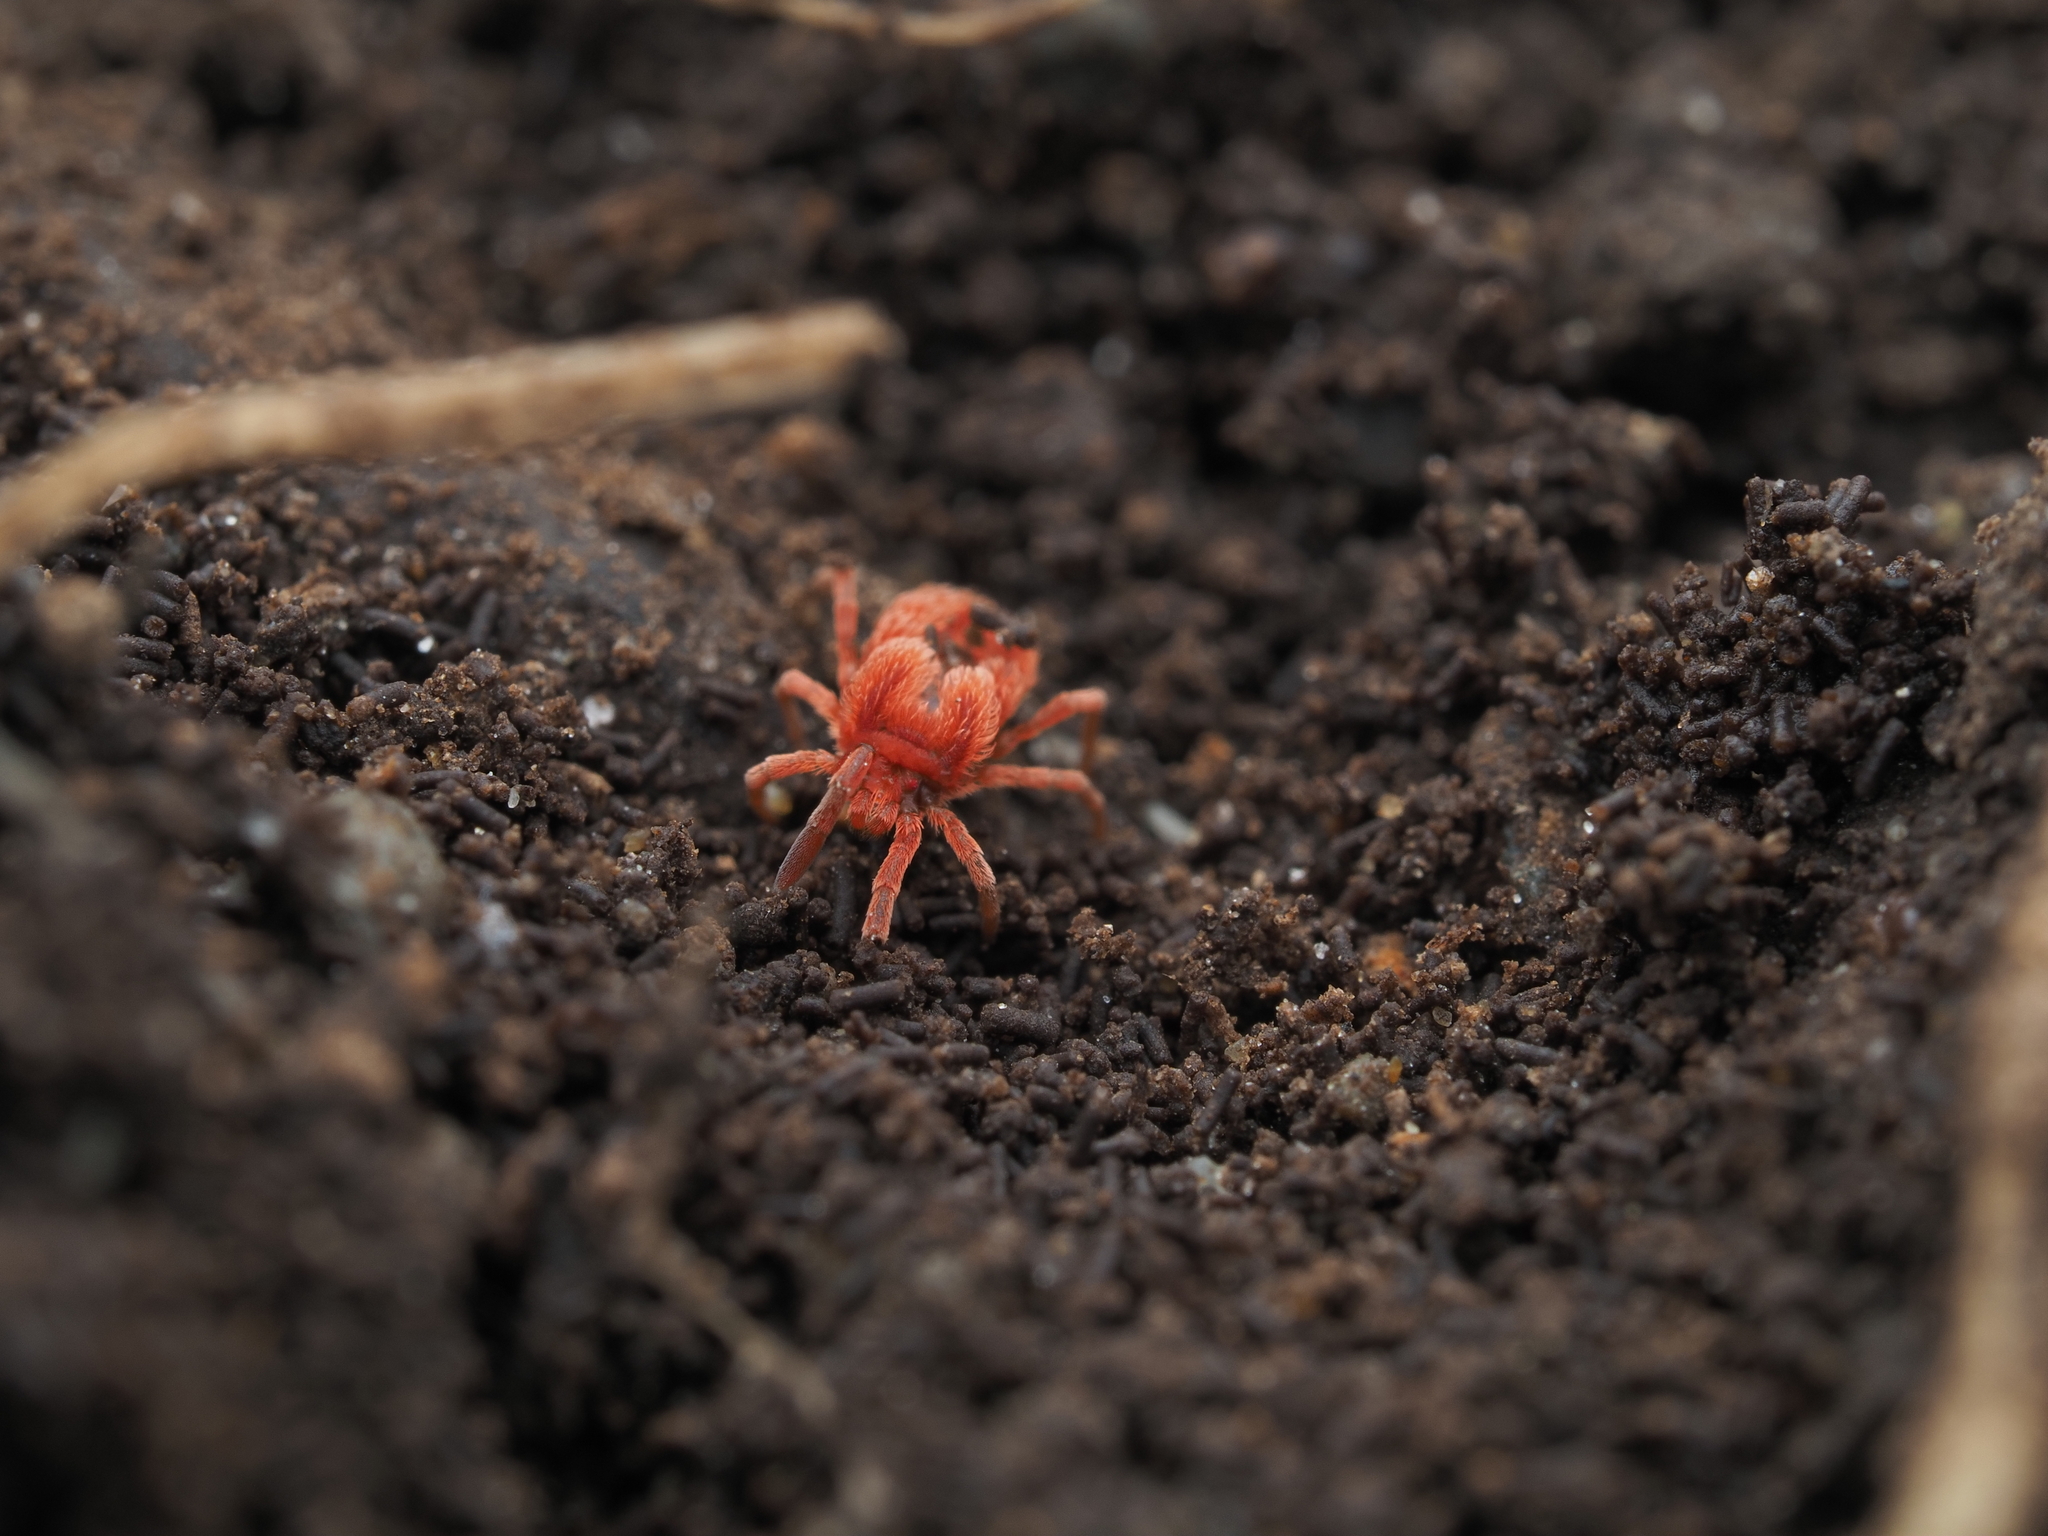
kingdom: Animalia
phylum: Arthropoda
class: Arachnida
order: Trombidiformes
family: Chyzeriidae
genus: Chyzeria
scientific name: Chyzeria
